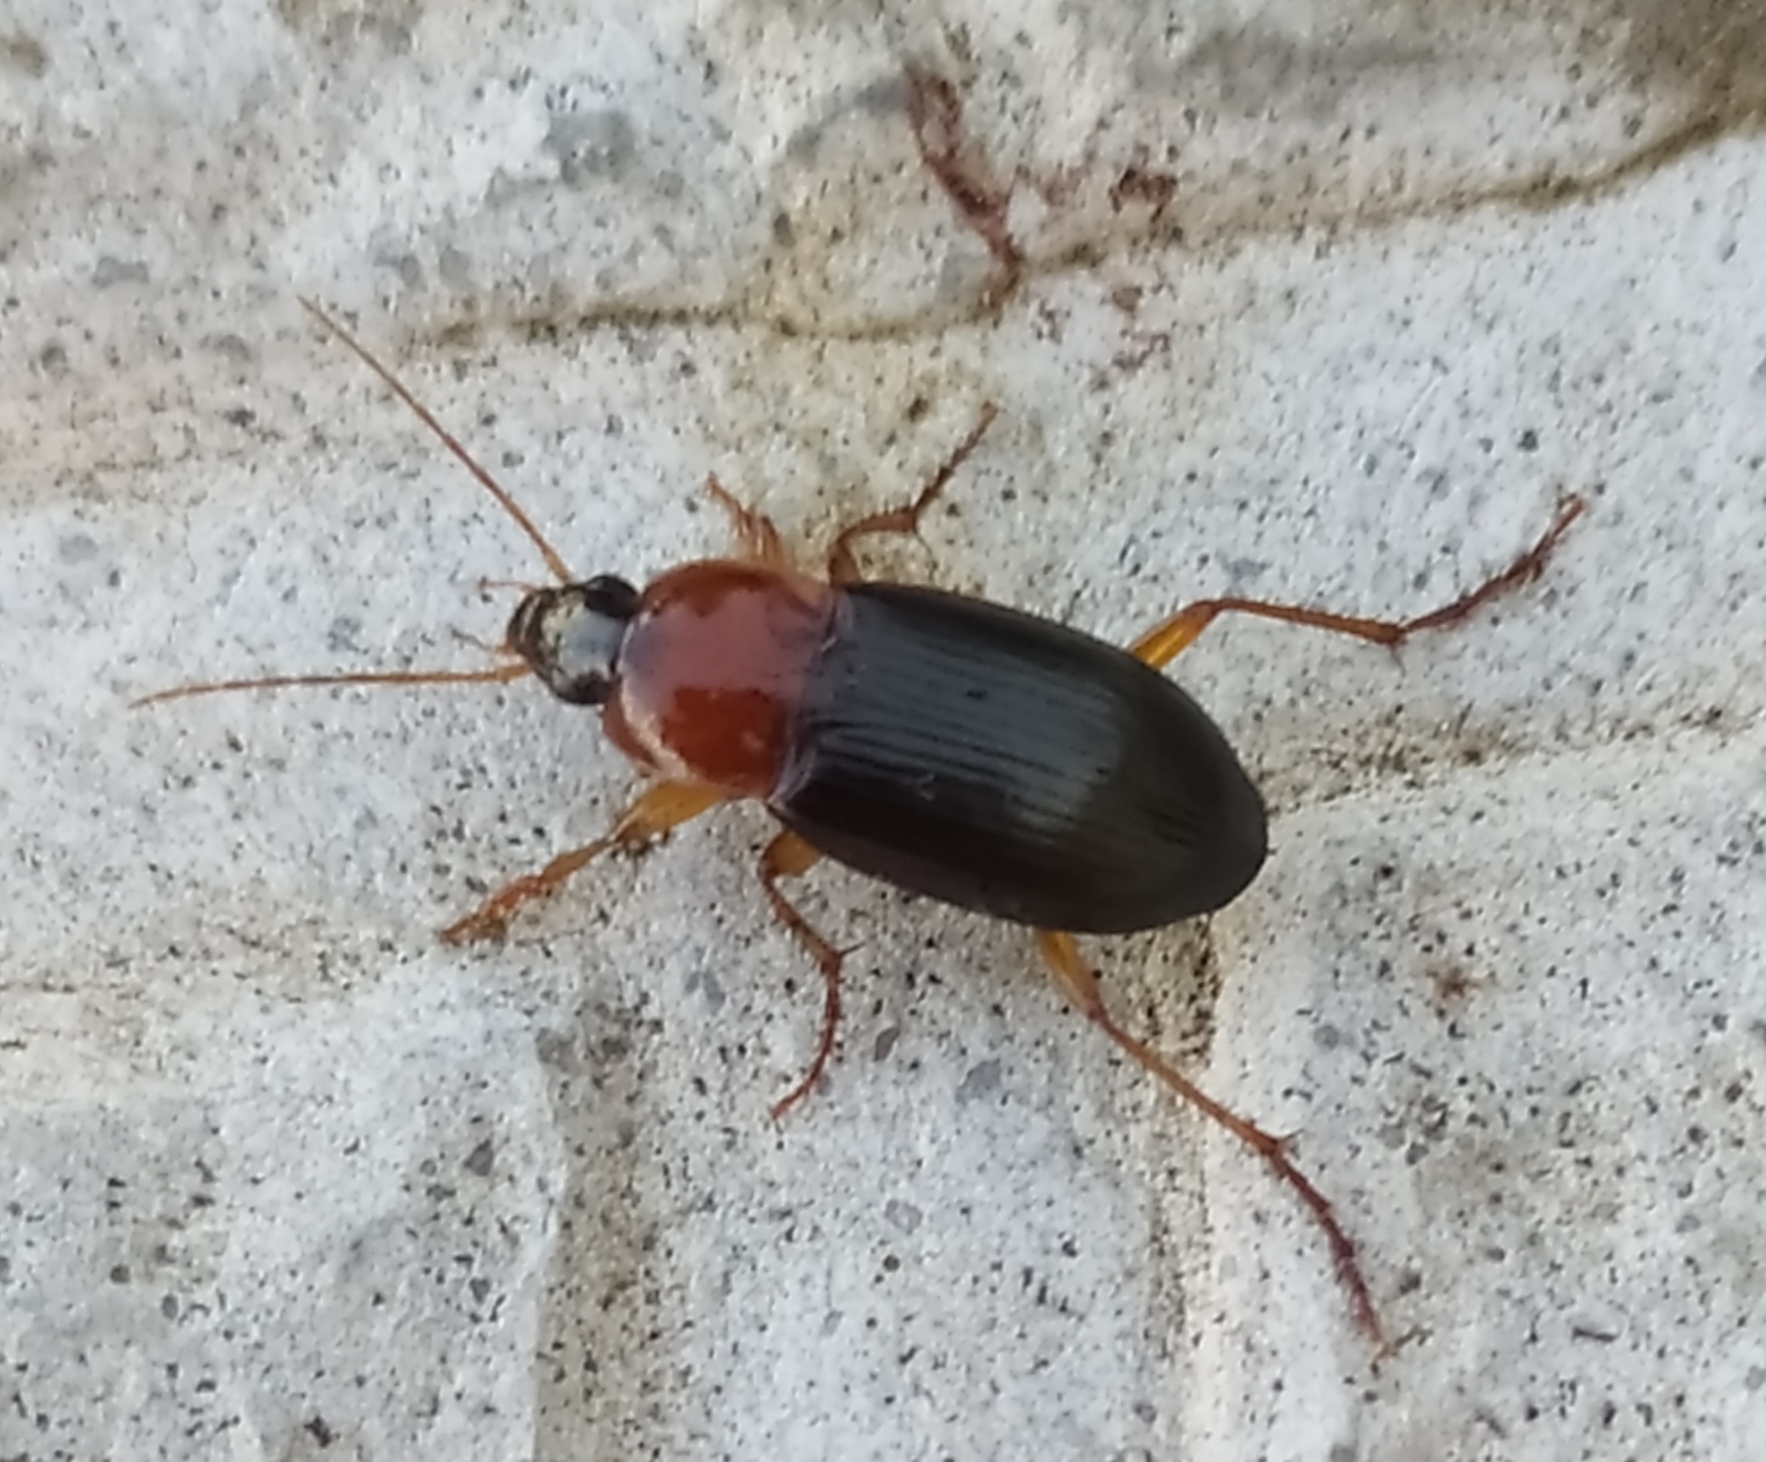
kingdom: Animalia
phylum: Arthropoda
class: Insecta
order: Coleoptera
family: Carabidae
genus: Calathus
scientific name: Calathus melanocephalus
